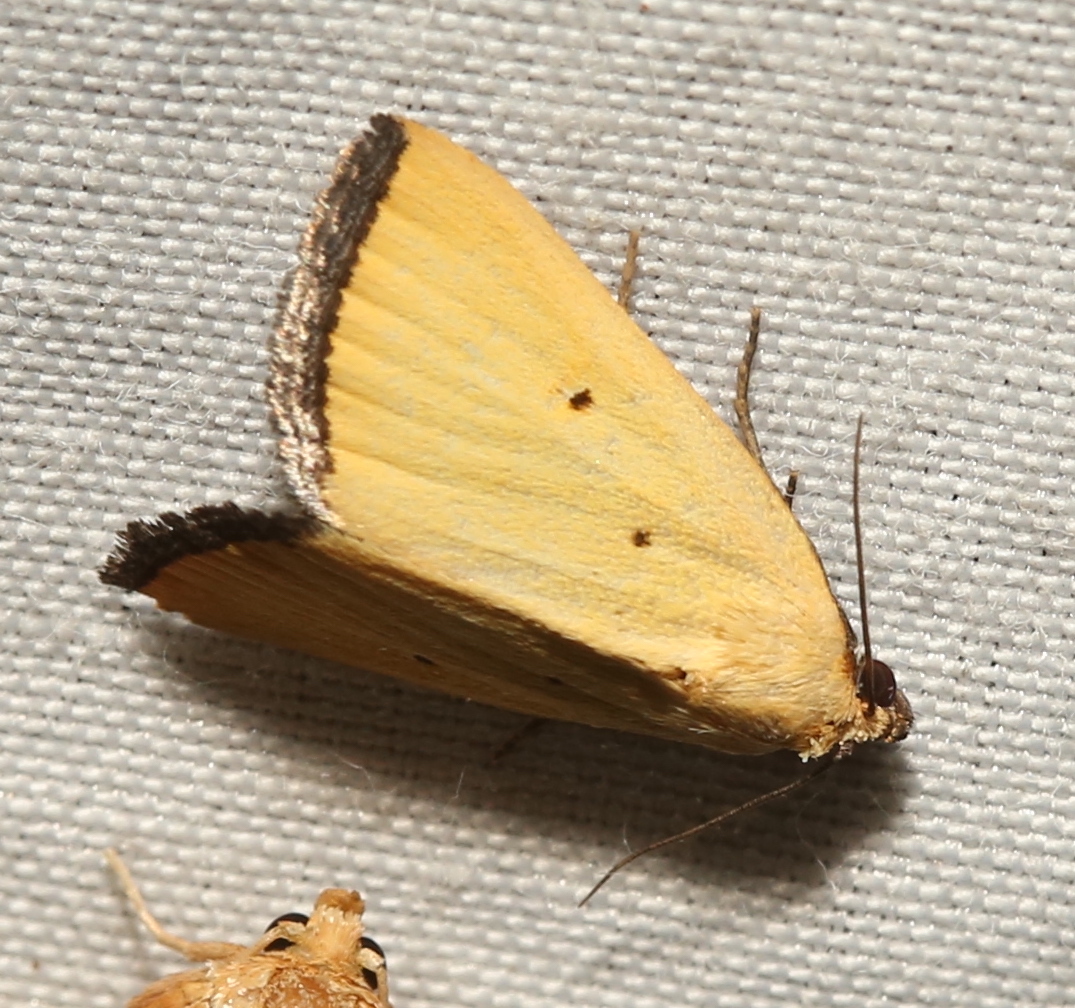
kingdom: Animalia
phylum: Arthropoda
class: Insecta
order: Lepidoptera
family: Noctuidae
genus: Marimatha
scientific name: Marimatha nigrofimbria
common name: Black-bordered lemon moth
